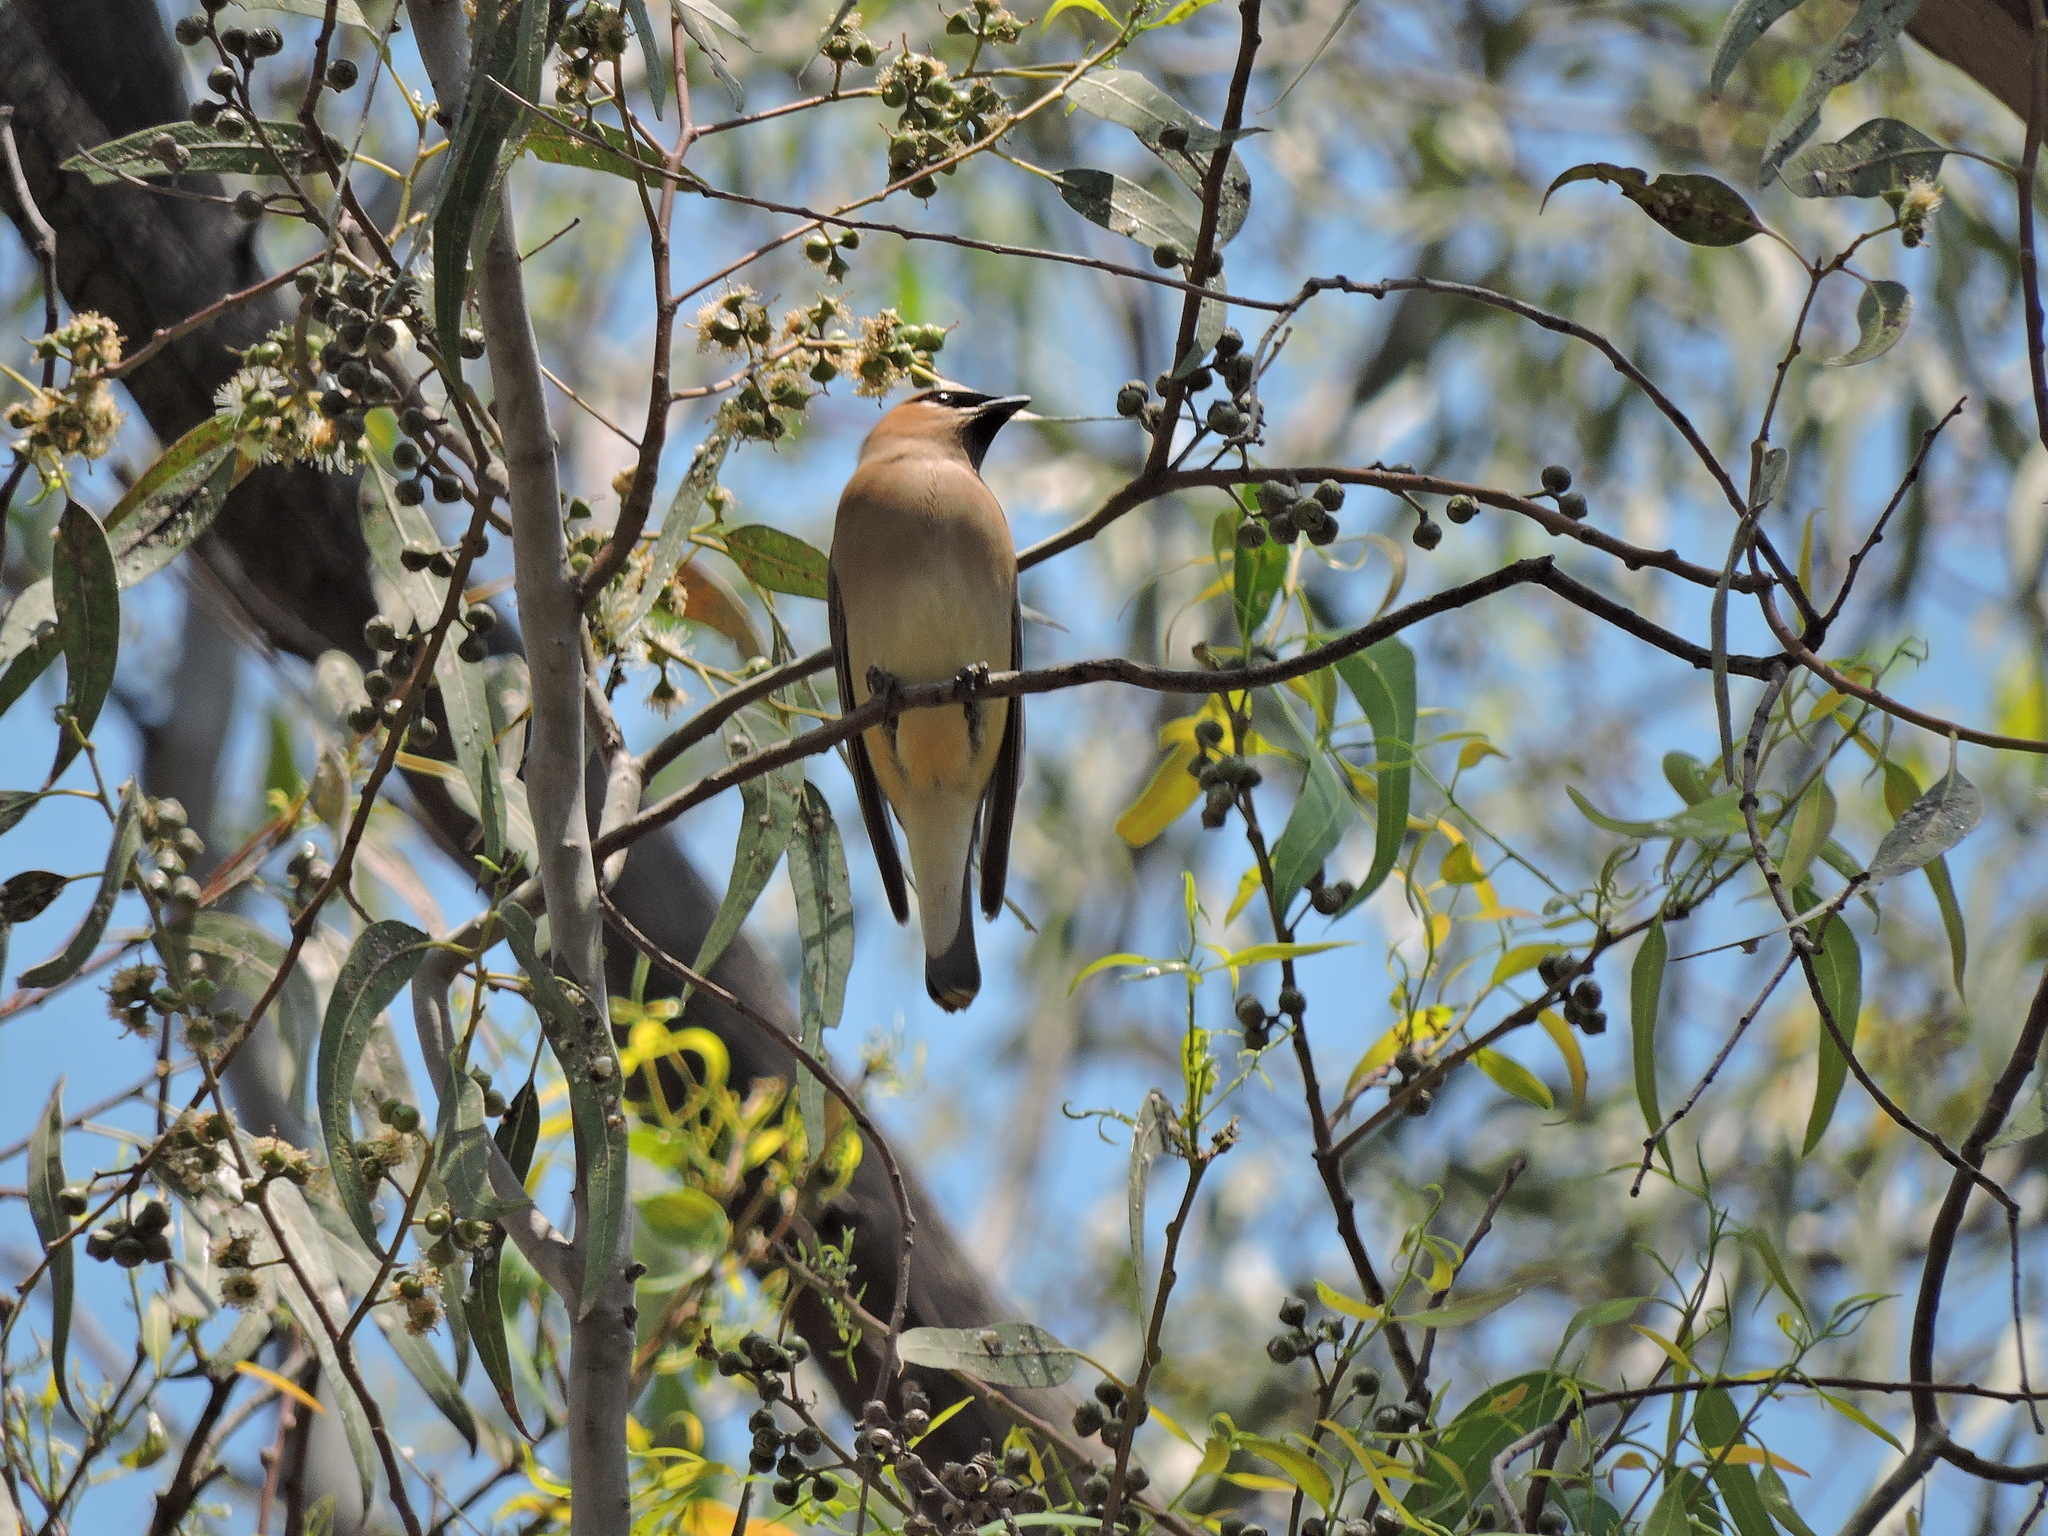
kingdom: Animalia
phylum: Chordata
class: Aves
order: Passeriformes
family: Bombycillidae
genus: Bombycilla
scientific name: Bombycilla cedrorum
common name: Cedar waxwing
